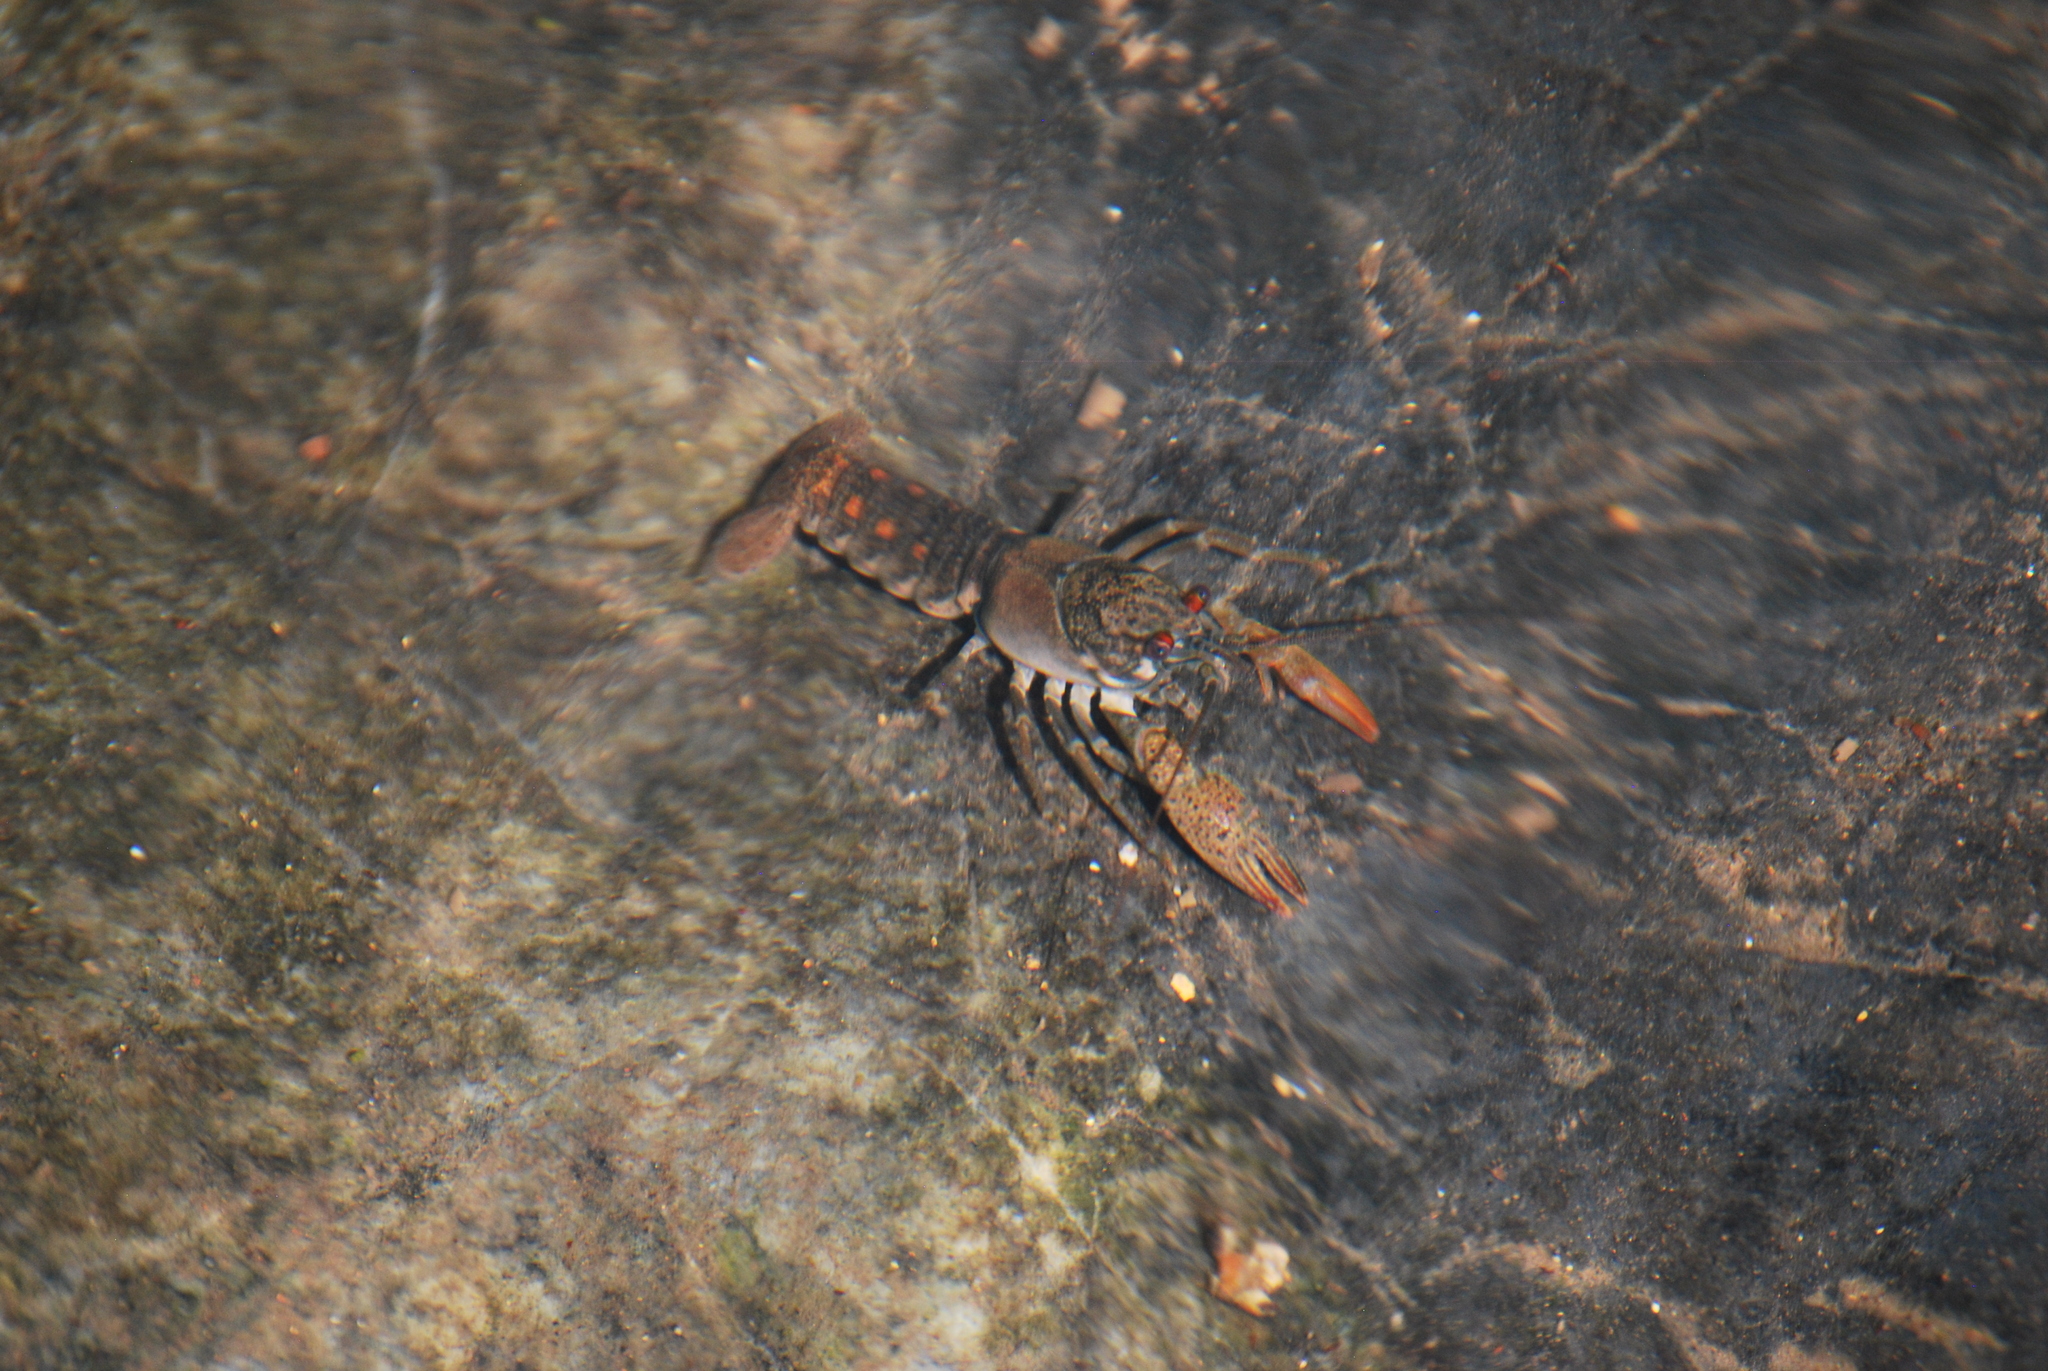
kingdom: Animalia
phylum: Arthropoda
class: Malacostraca
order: Decapoda
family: Cambaridae
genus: Faxonius
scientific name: Faxonius acares
